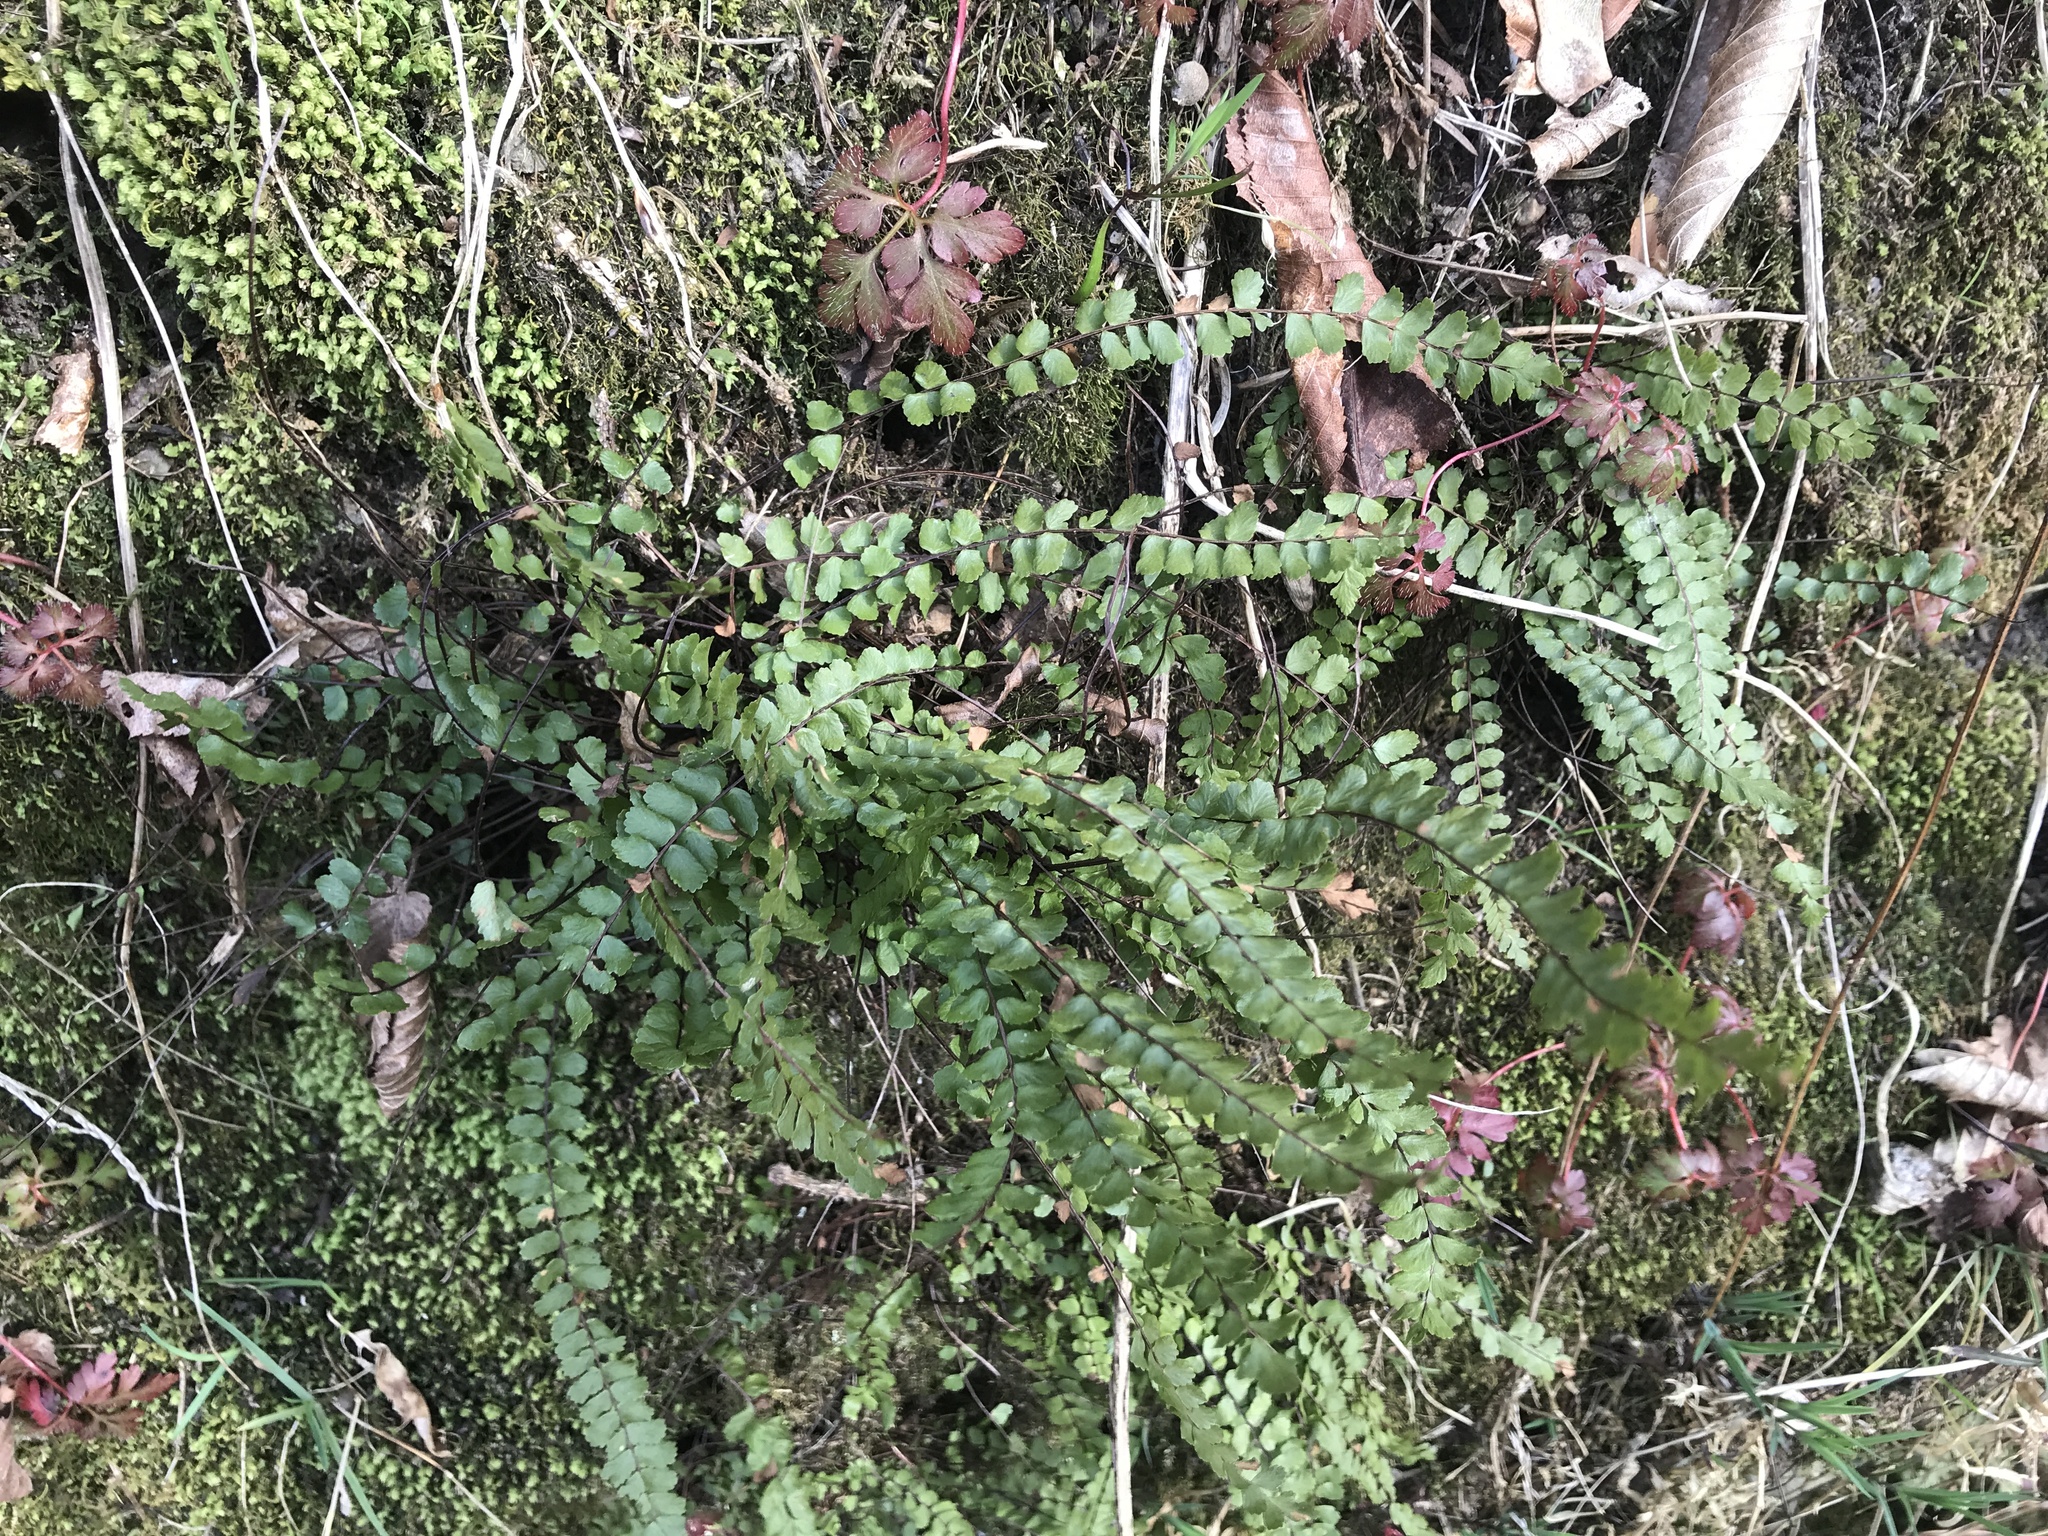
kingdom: Plantae
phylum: Tracheophyta
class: Polypodiopsida
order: Polypodiales
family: Aspleniaceae
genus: Asplenium
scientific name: Asplenium trichomanes
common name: Maidenhair spleenwort
